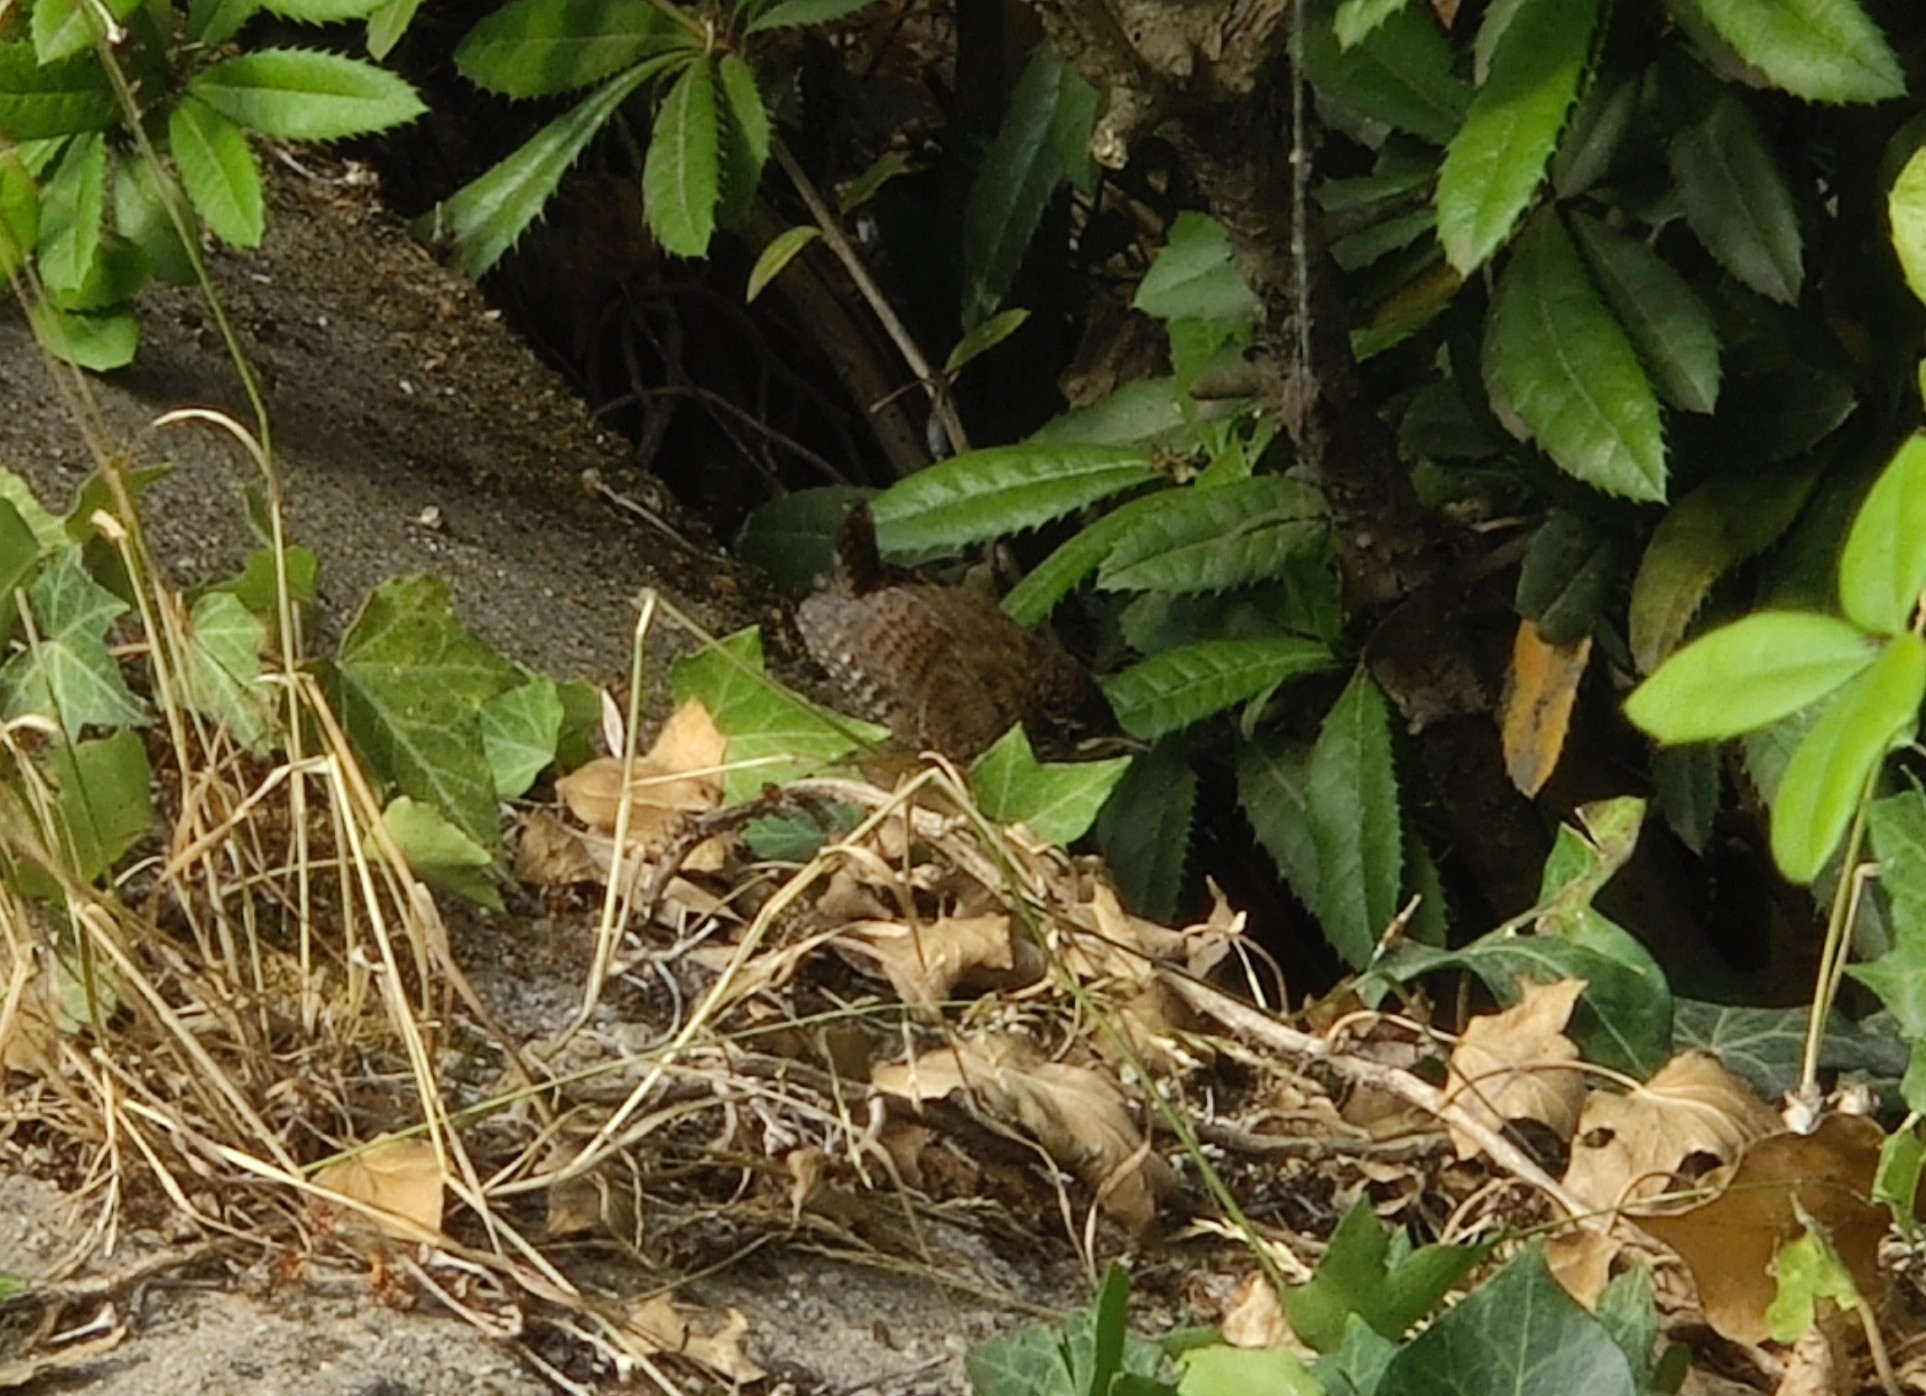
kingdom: Animalia
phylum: Chordata
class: Aves
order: Passeriformes
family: Troglodytidae
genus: Troglodytes
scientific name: Troglodytes troglodytes
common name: Eurasian wren
